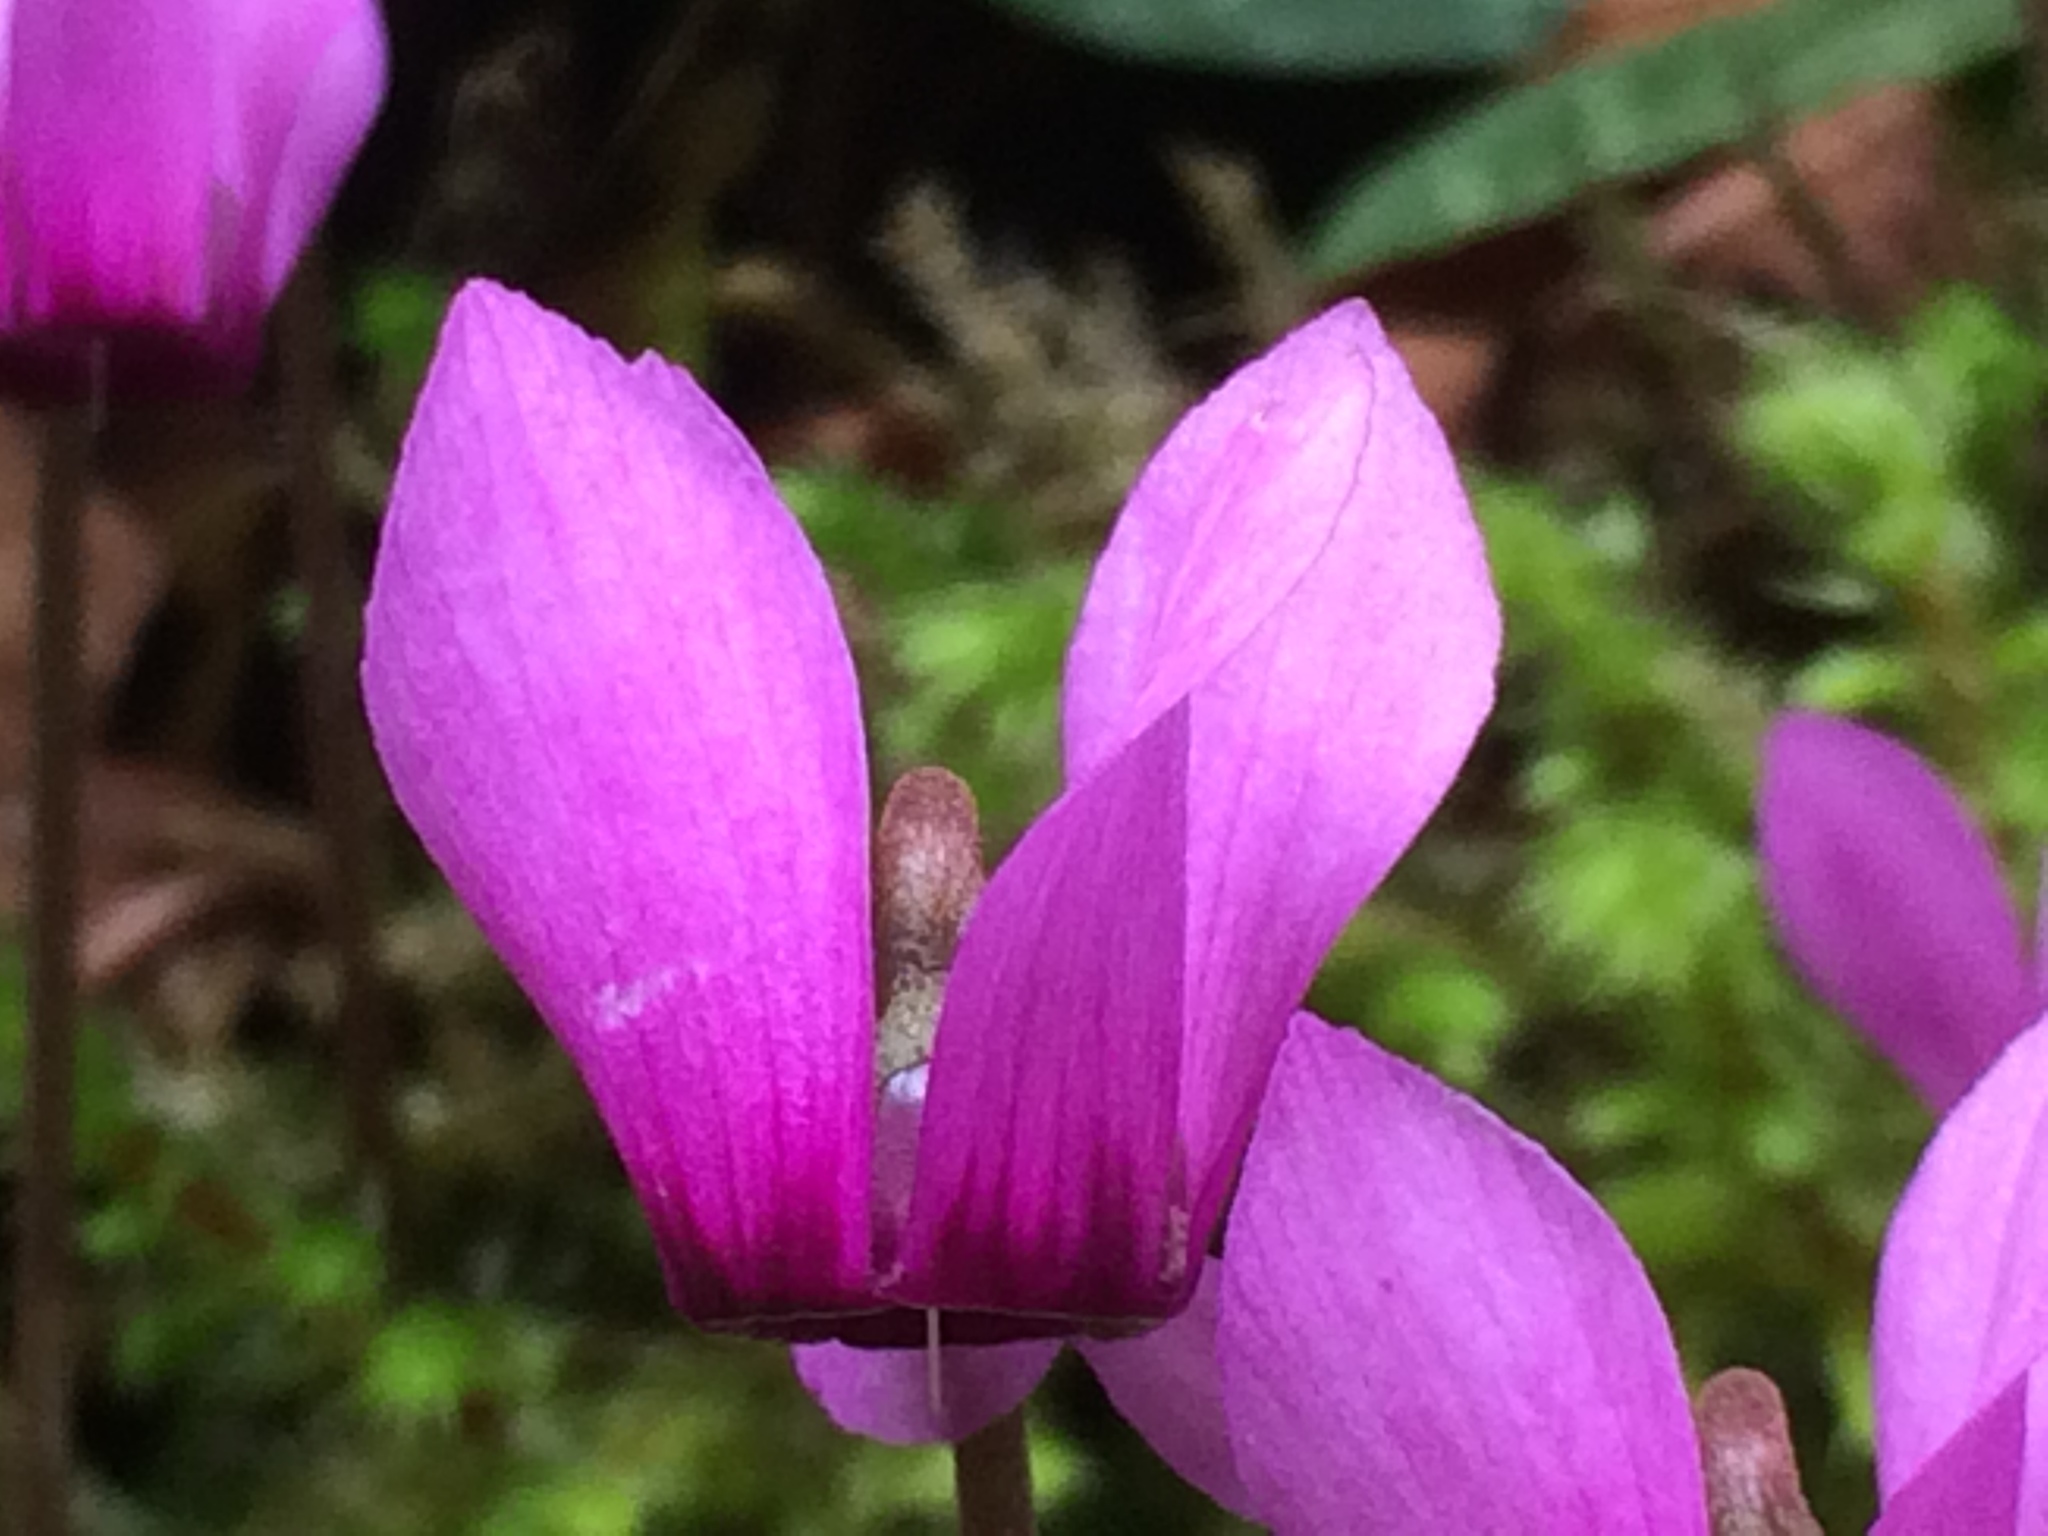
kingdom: Plantae
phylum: Tracheophyta
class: Magnoliopsida
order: Ericales
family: Primulaceae
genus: Cyclamen
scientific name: Cyclamen purpurascens
